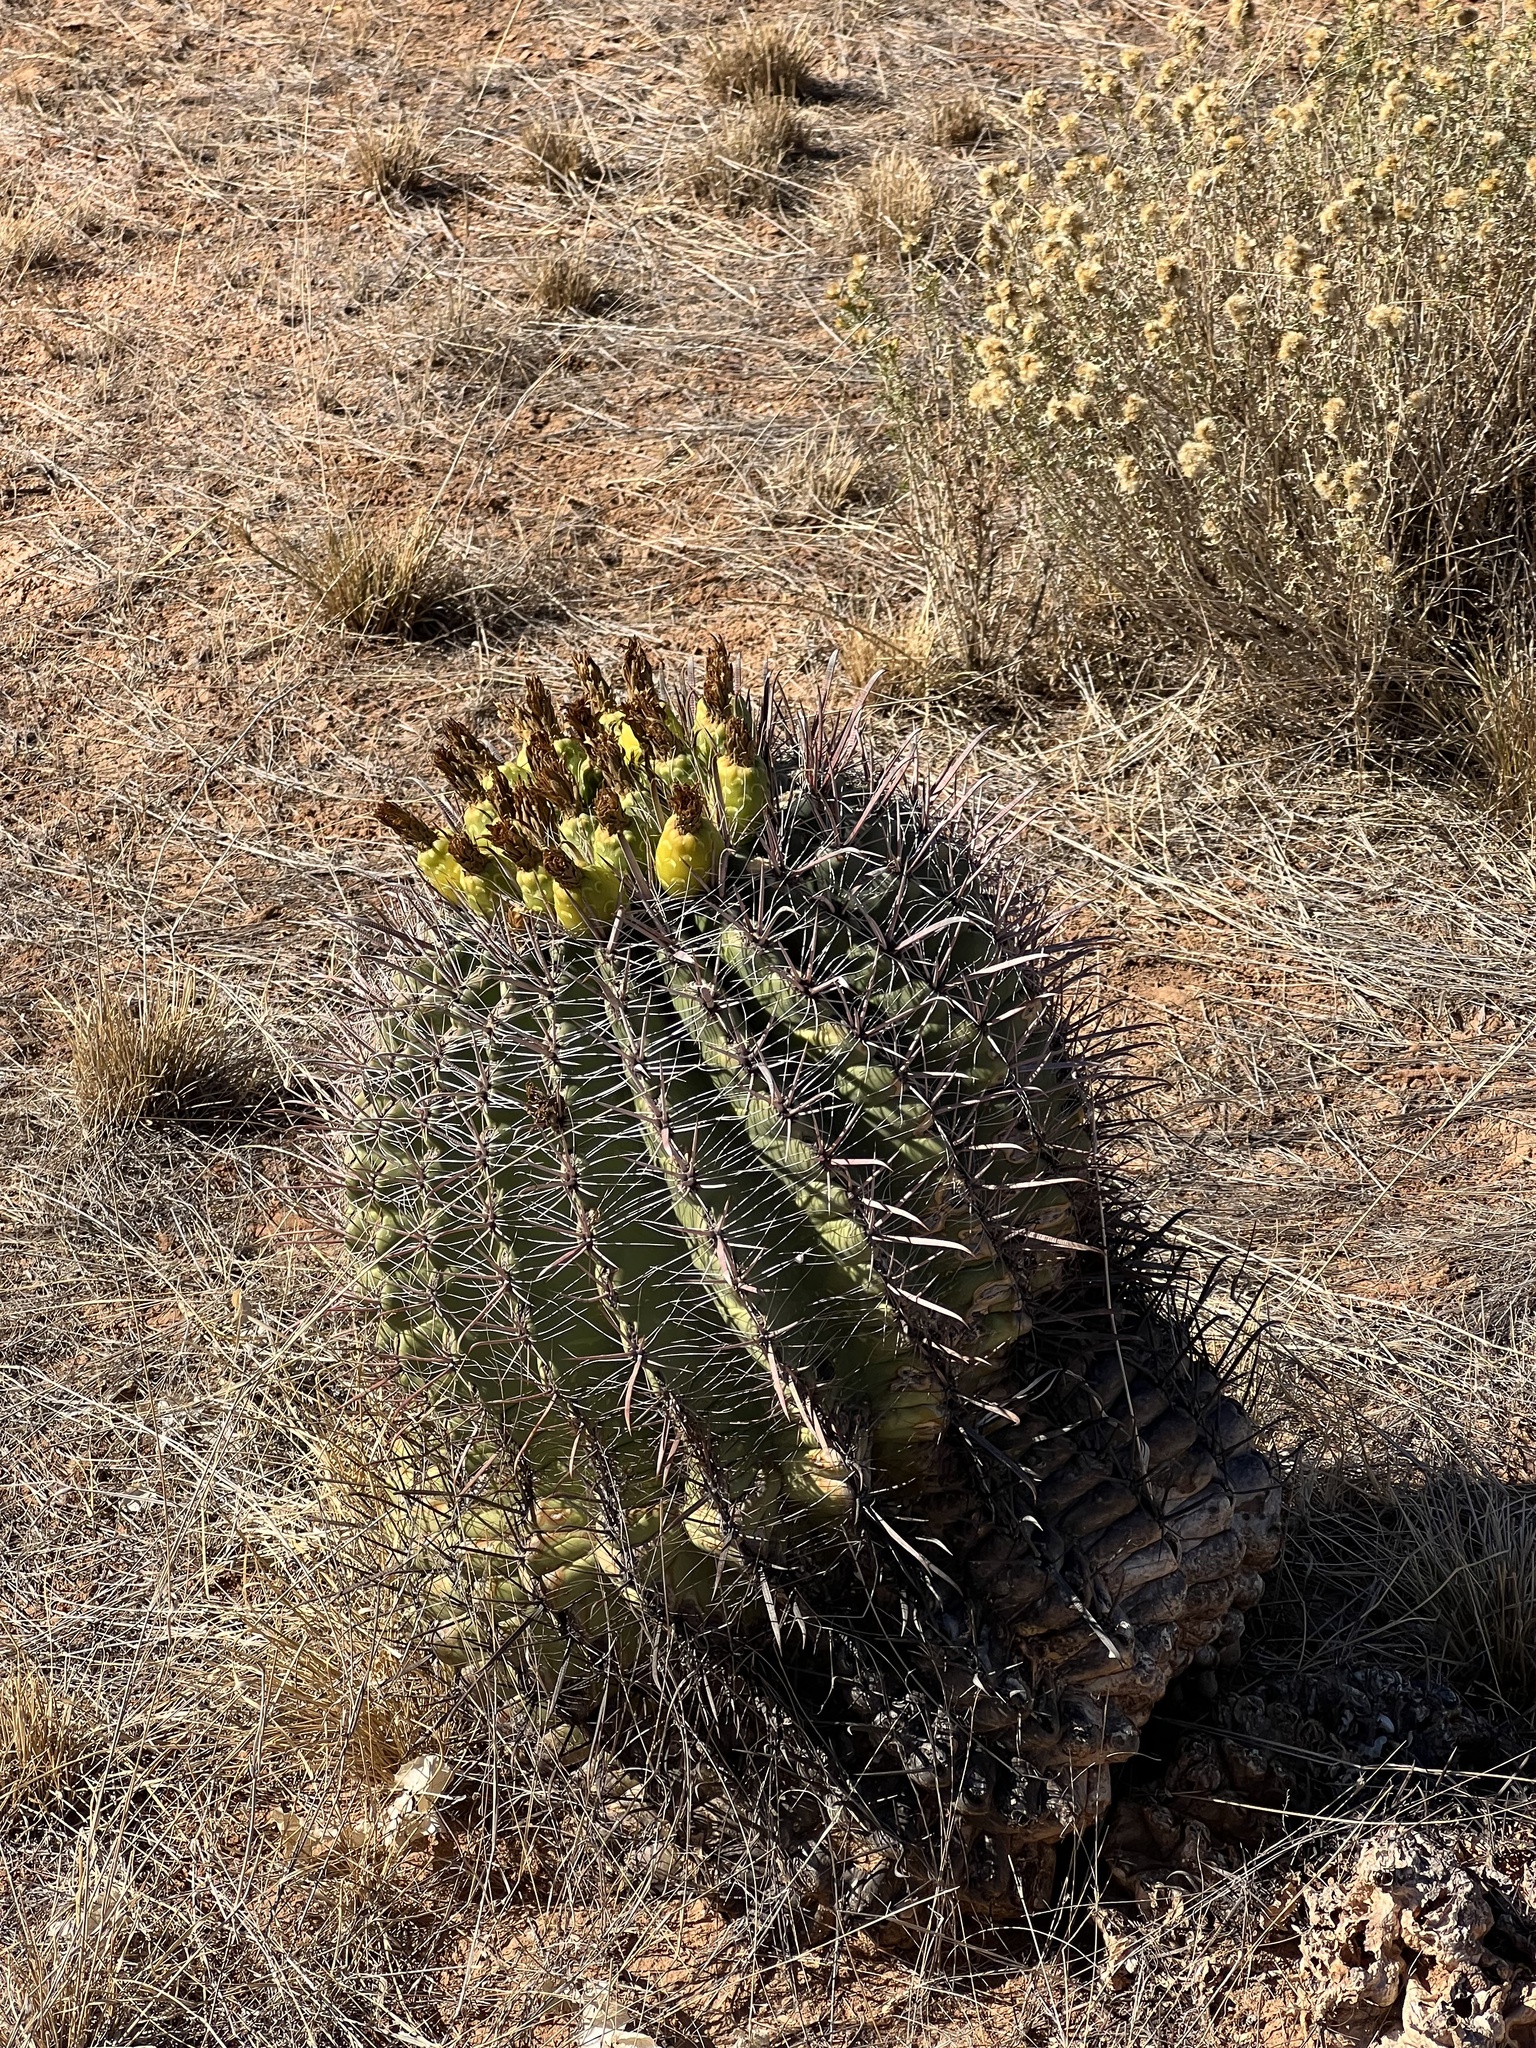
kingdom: Plantae
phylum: Tracheophyta
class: Magnoliopsida
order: Caryophyllales
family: Cactaceae
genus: Ferocactus
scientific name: Ferocactus wislizeni
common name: Candy barrel cactus
